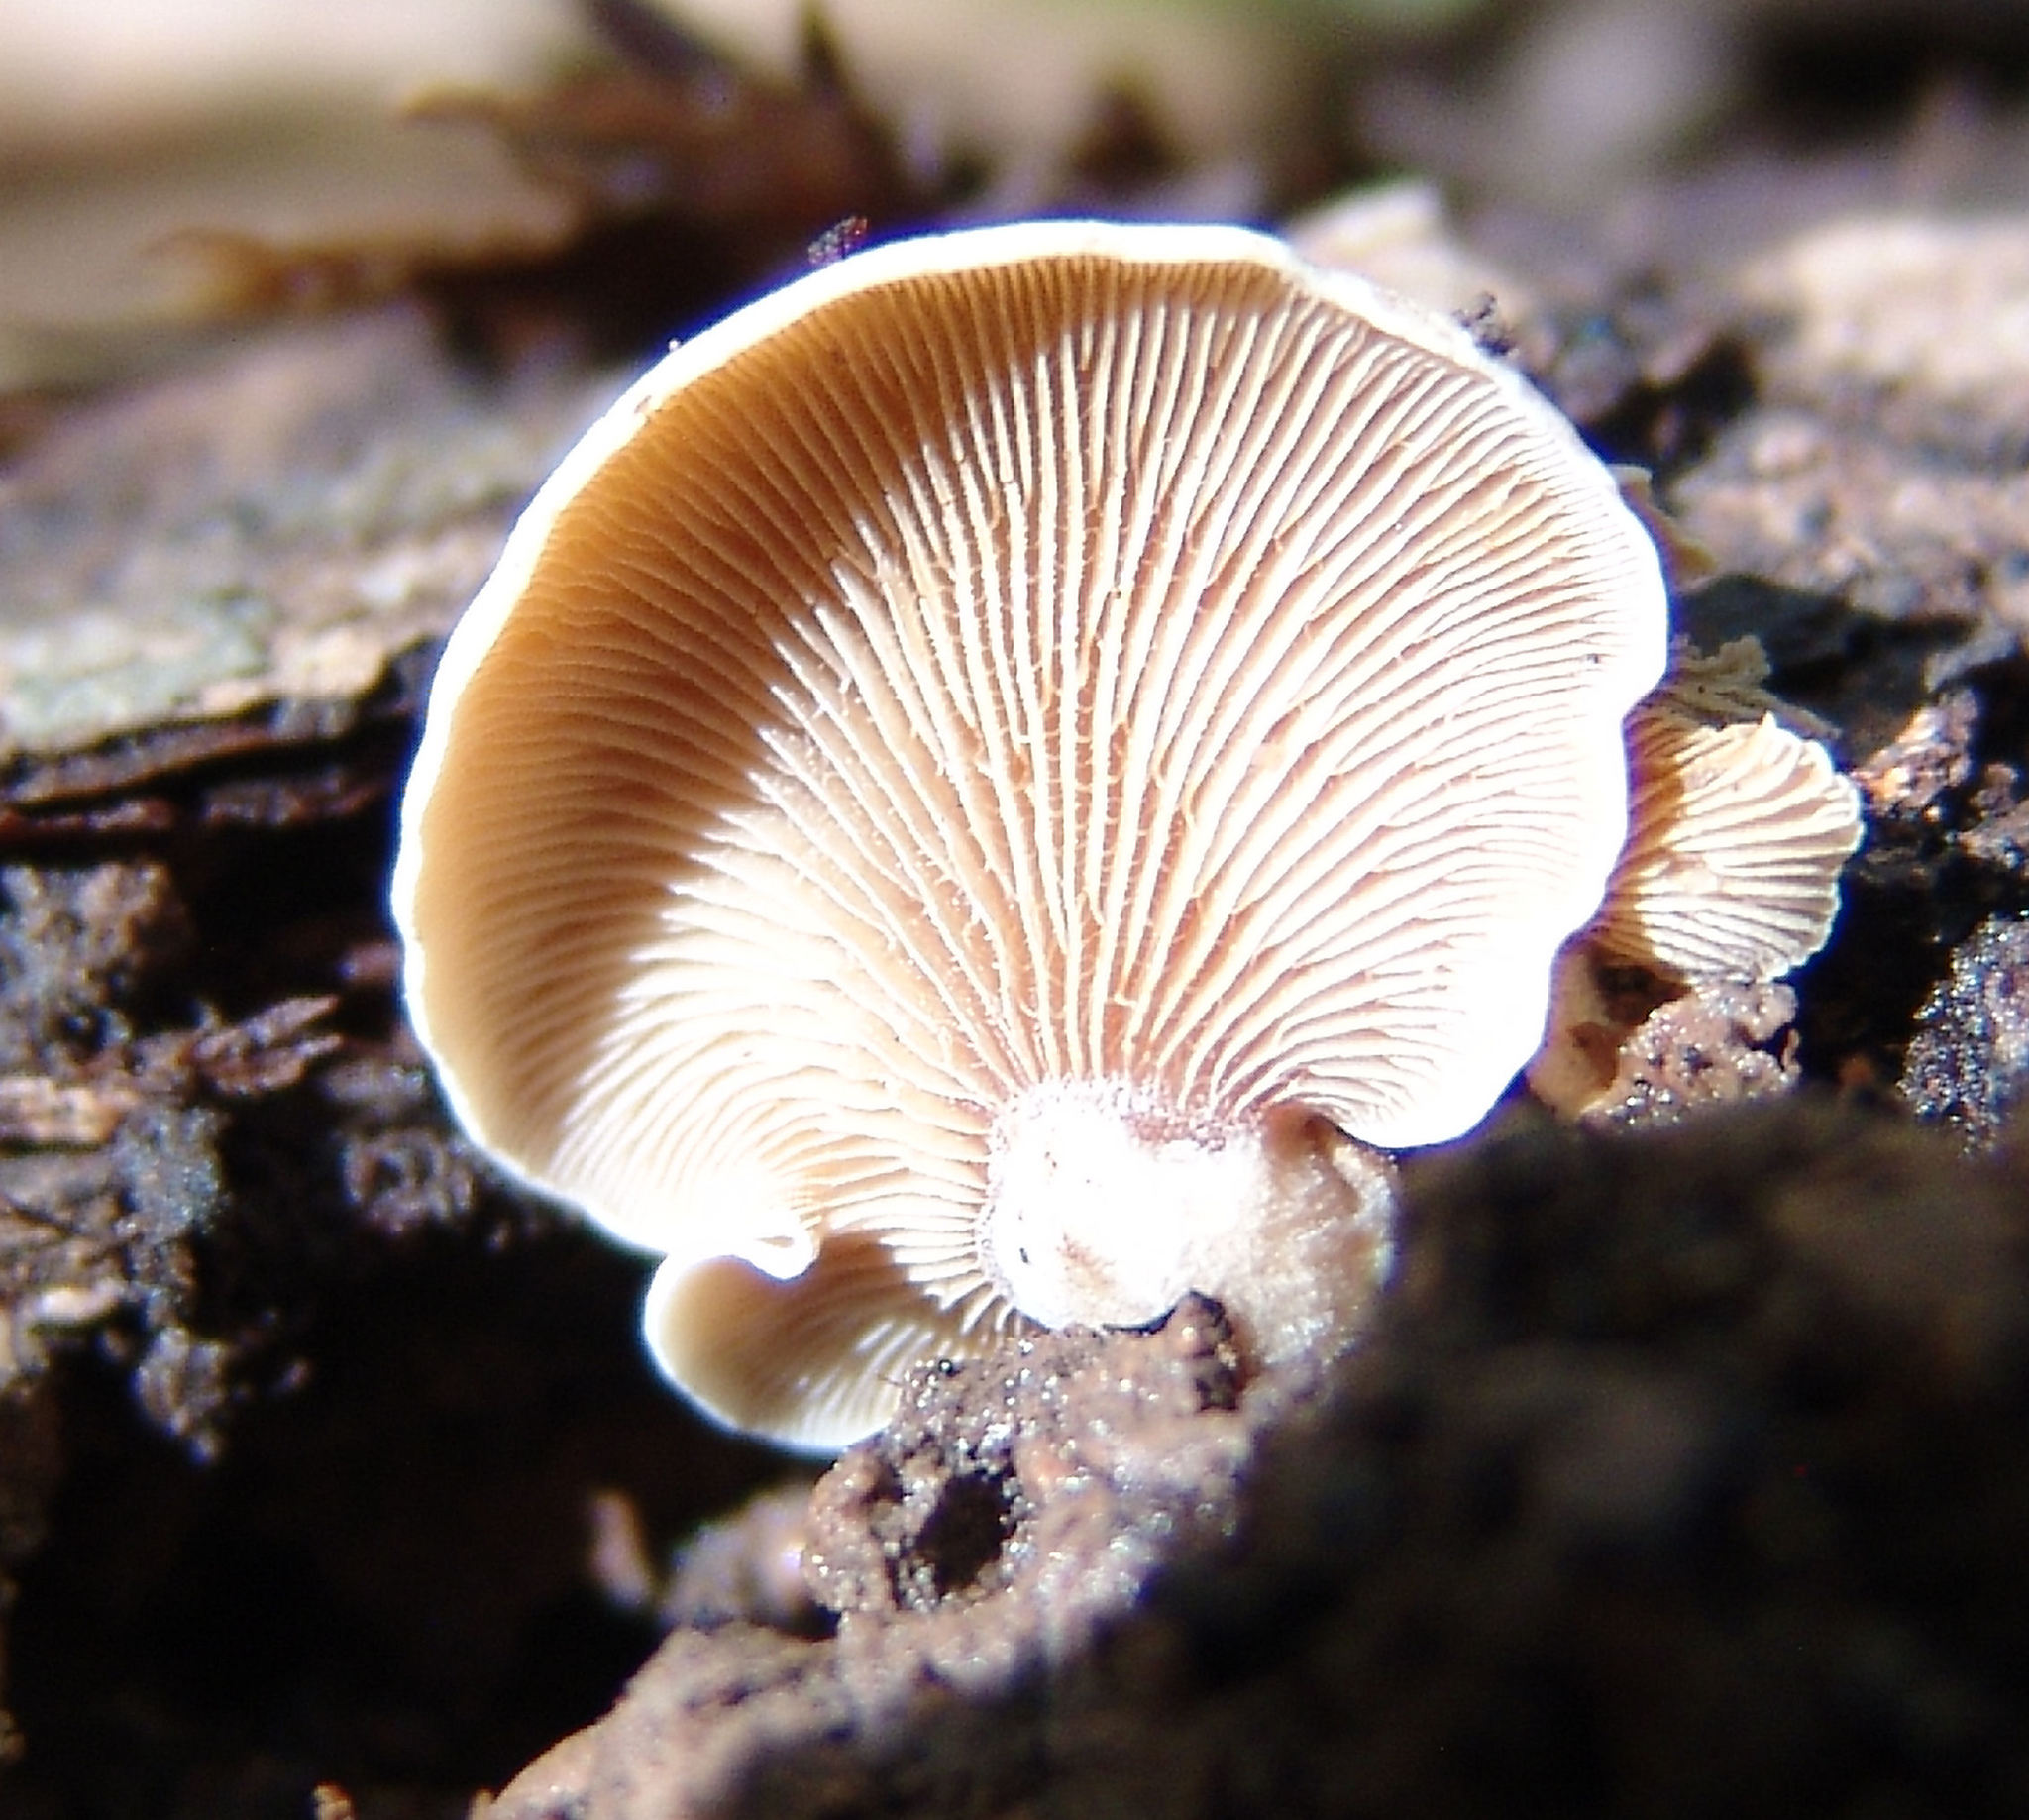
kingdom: Fungi
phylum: Basidiomycota
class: Agaricomycetes
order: Agaricales
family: Mycenaceae
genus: Panellus
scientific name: Panellus stipticus
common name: Bitter oysterling
